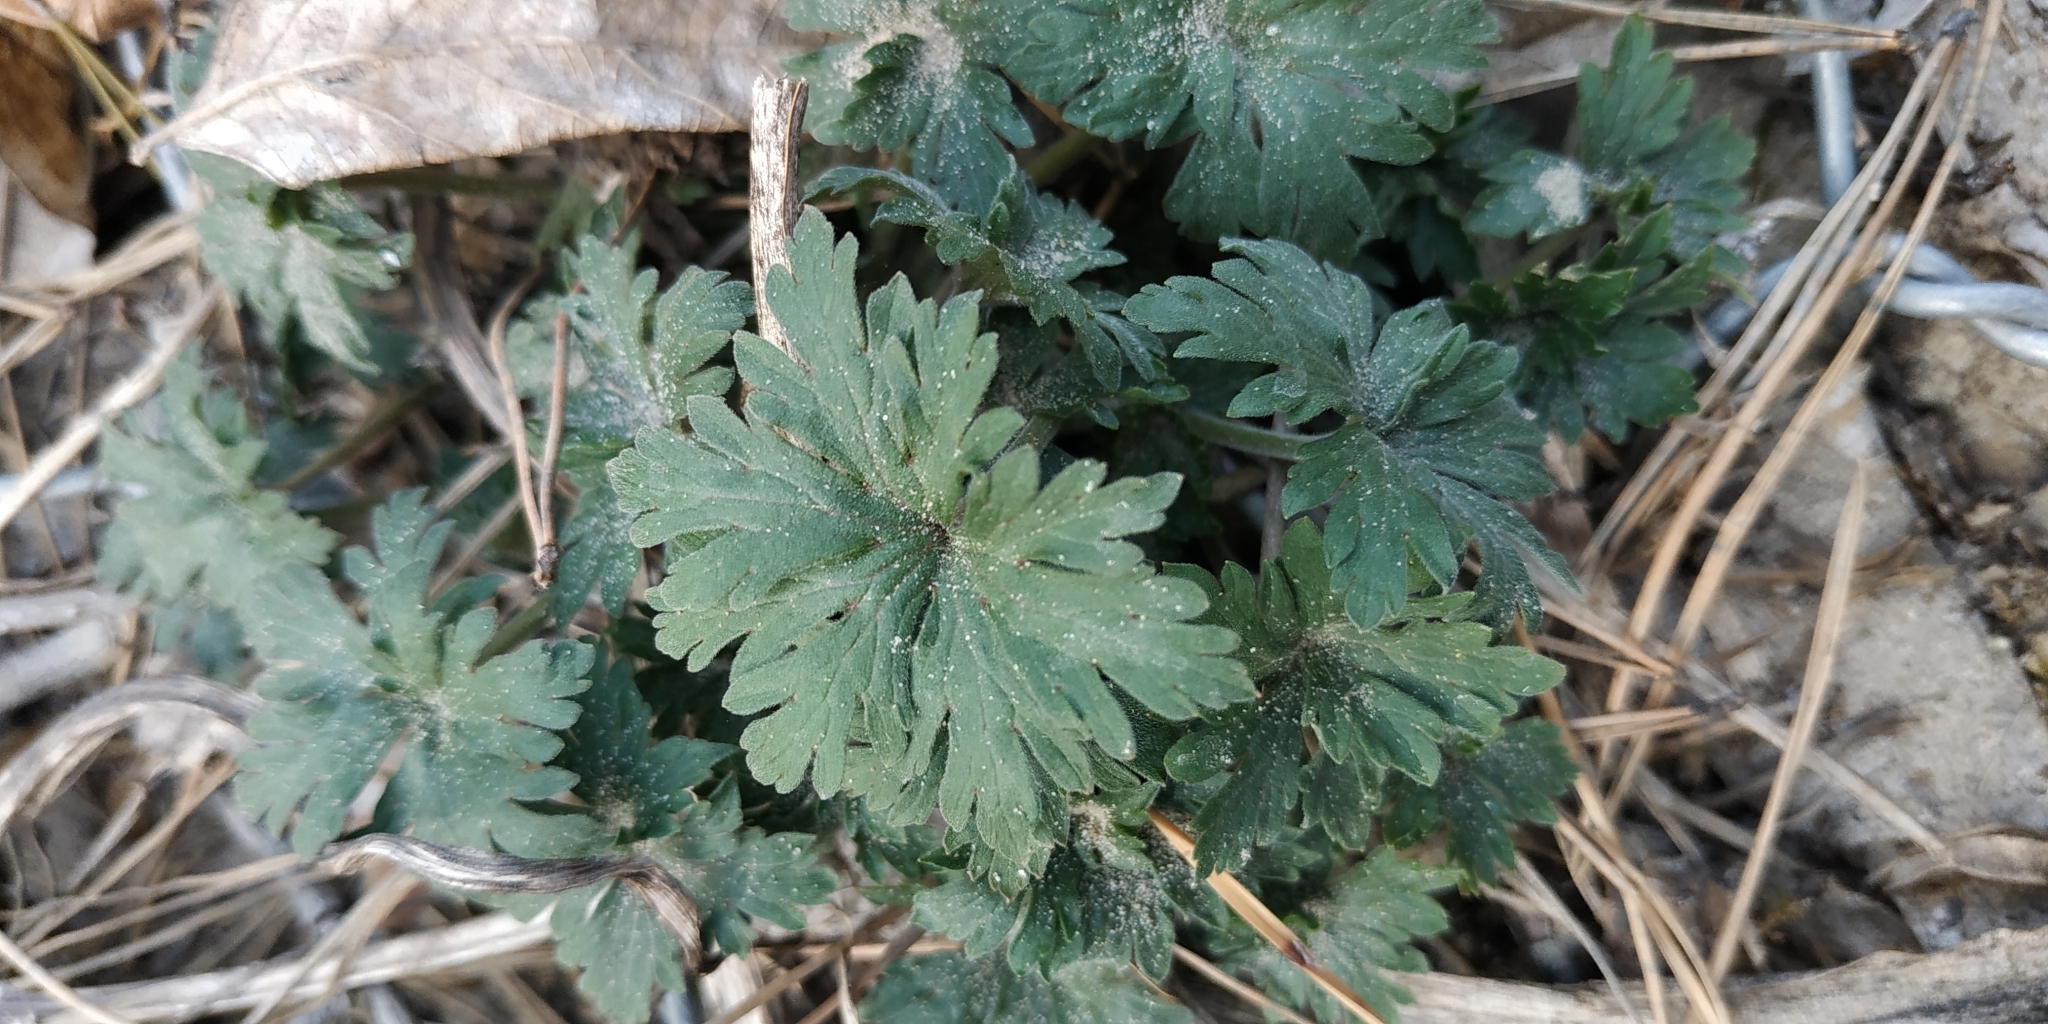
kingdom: Plantae
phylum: Tracheophyta
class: Magnoliopsida
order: Geraniales
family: Geraniaceae
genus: Geranium
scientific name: Geranium sibiricum
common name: Siberian crane's-bill
